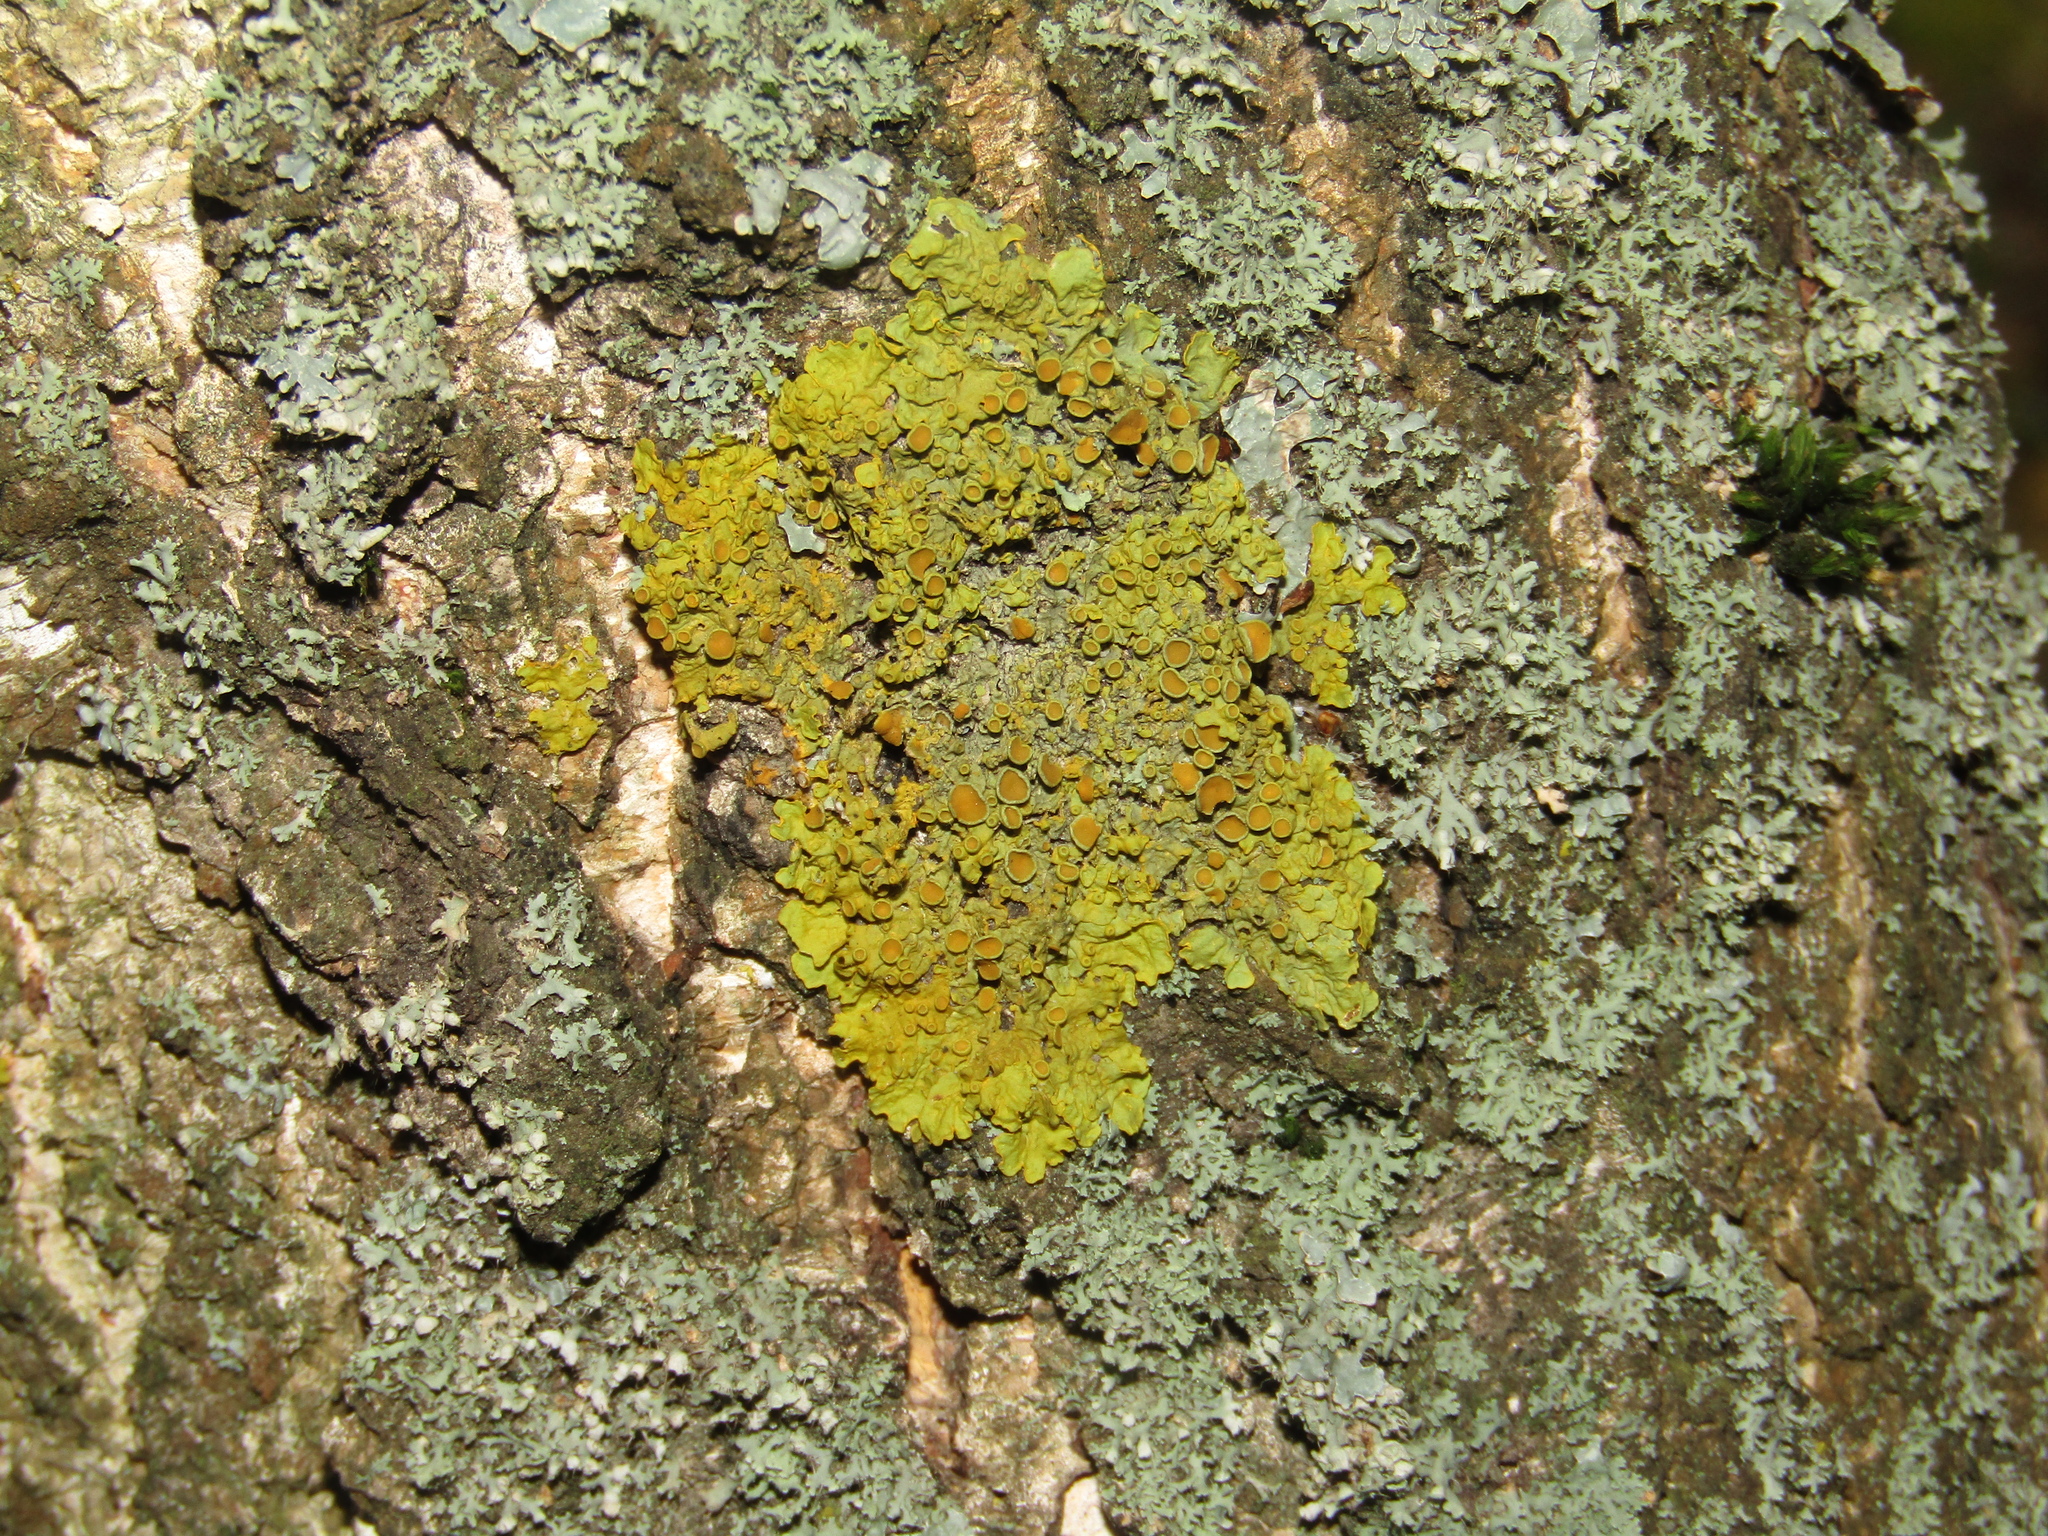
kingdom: Fungi
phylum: Ascomycota
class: Lecanoromycetes
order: Teloschistales
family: Teloschistaceae
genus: Xanthoria
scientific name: Xanthoria parietina
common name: Common orange lichen
